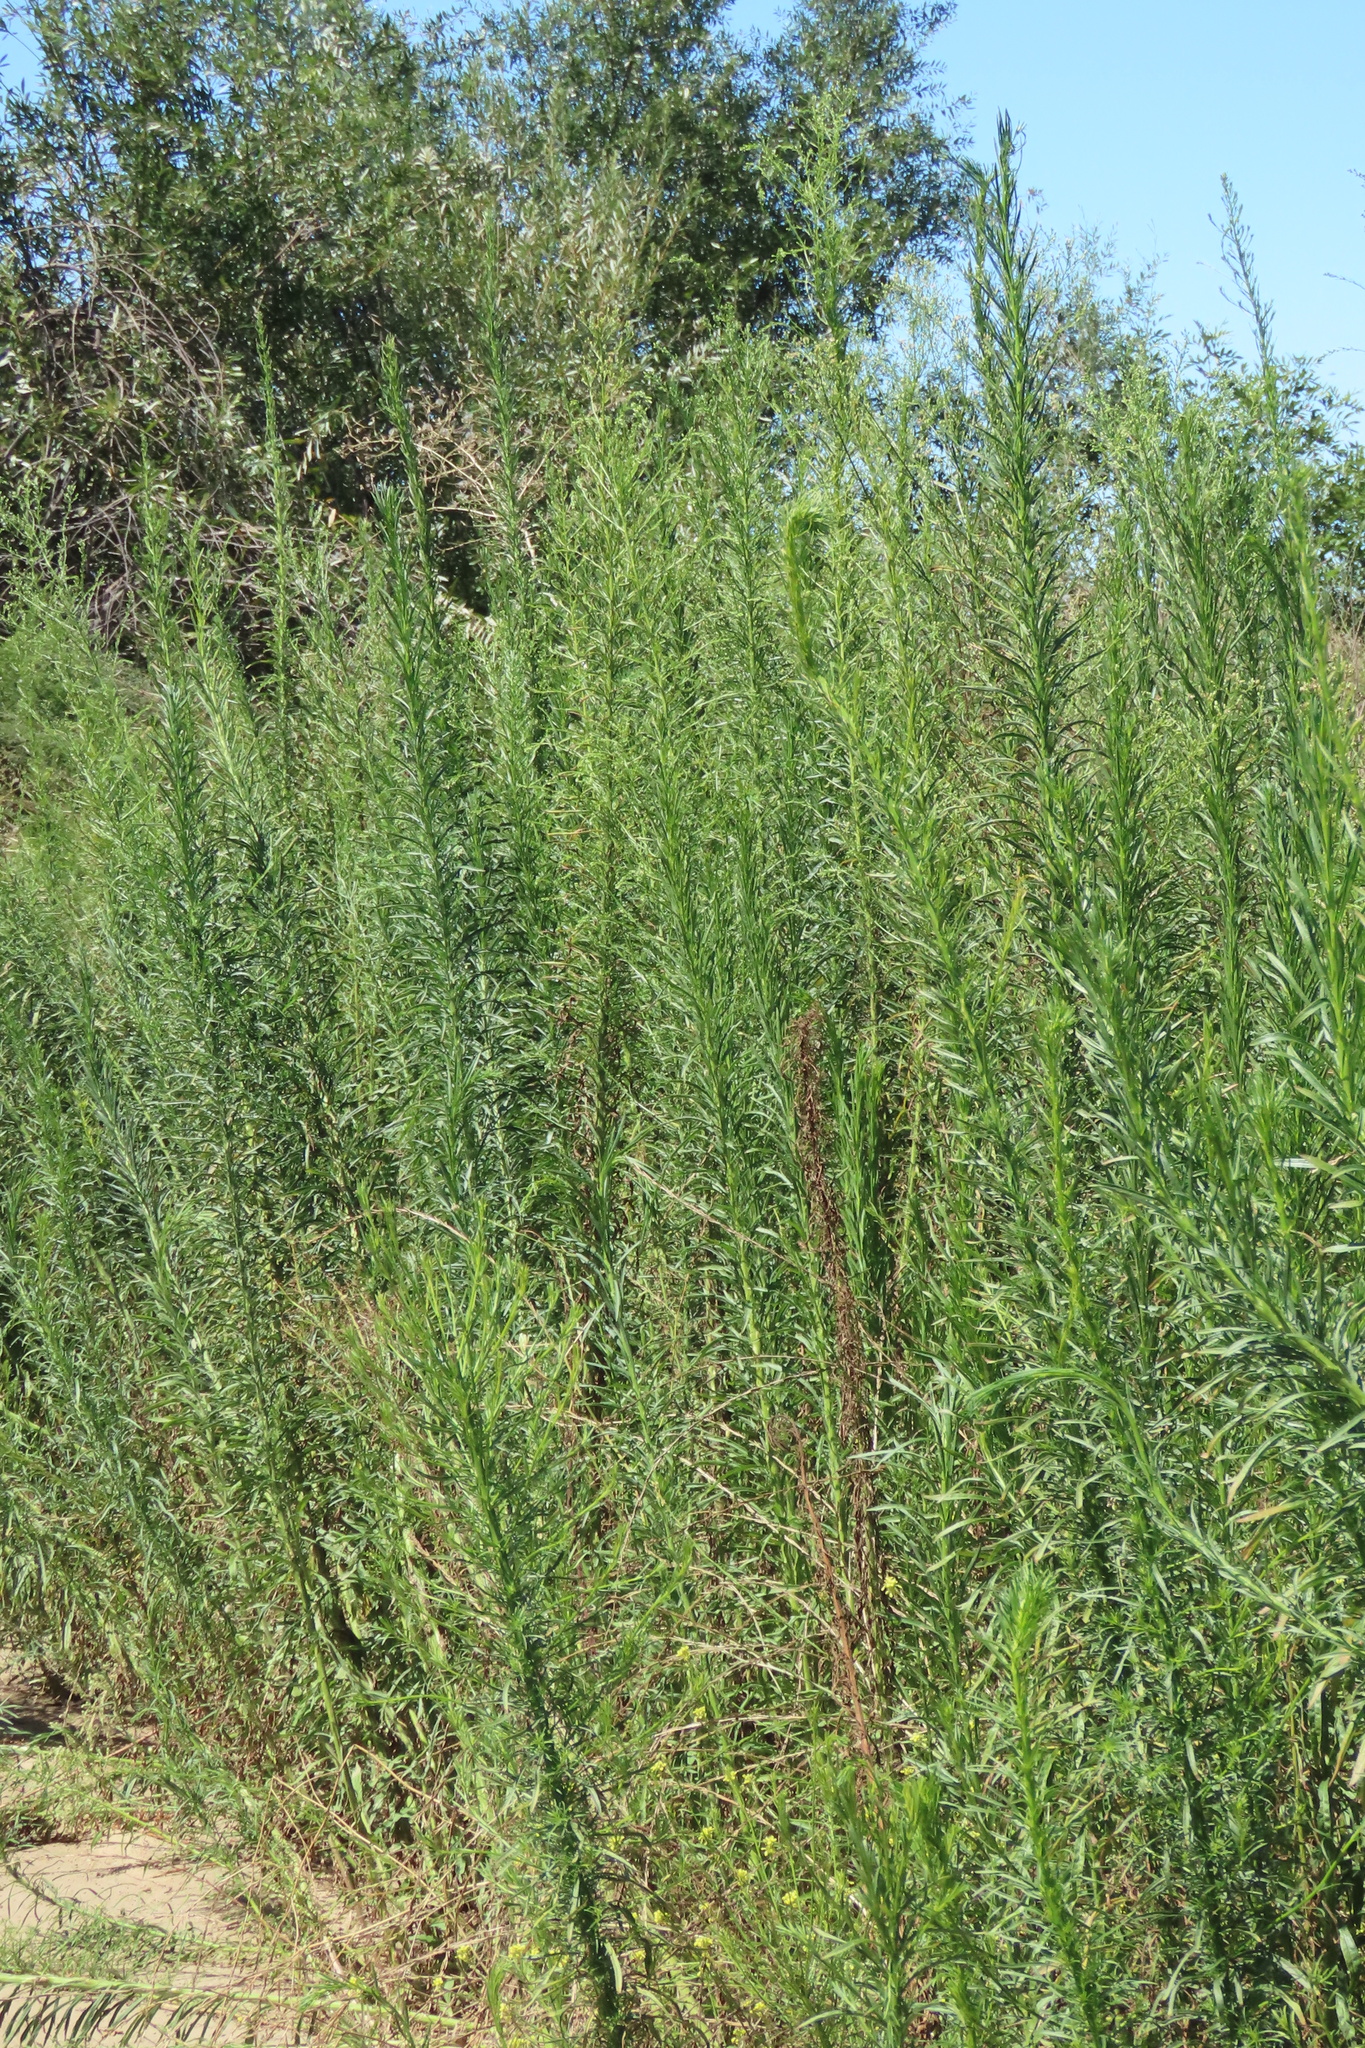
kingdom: Plantae
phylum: Tracheophyta
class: Magnoliopsida
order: Asterales
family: Asteraceae
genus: Erigeron
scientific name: Erigeron canadensis
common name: Canadian fleabane
